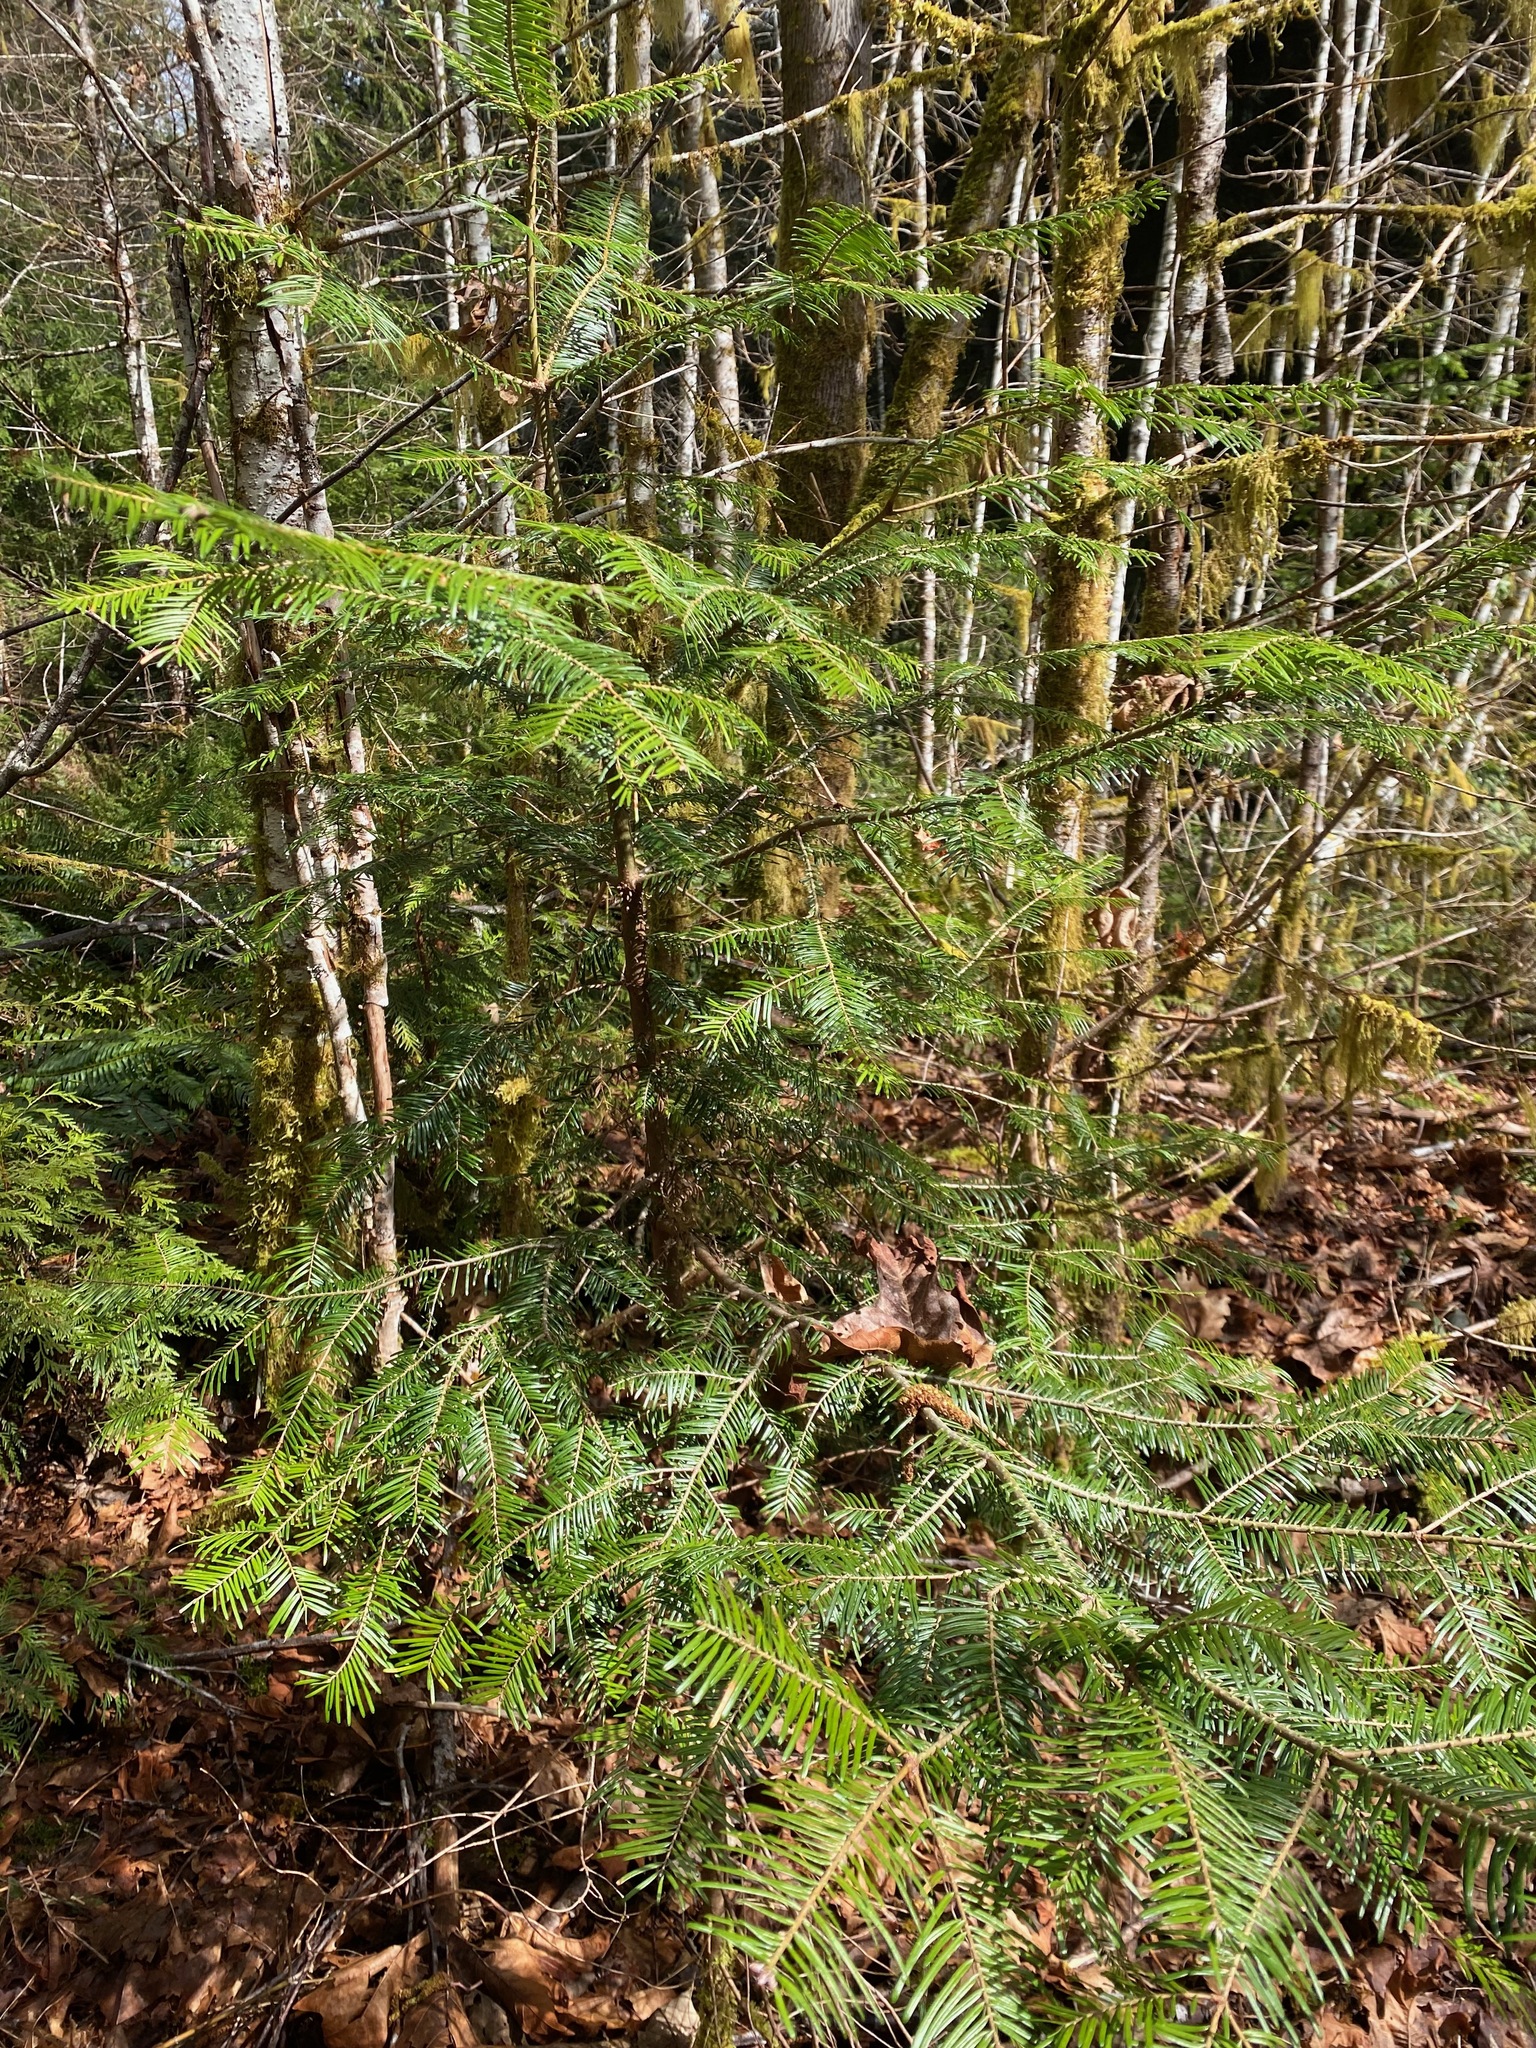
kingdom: Plantae
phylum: Tracheophyta
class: Pinopsida
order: Pinales
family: Pinaceae
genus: Abies
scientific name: Abies grandis
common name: Giant fir
